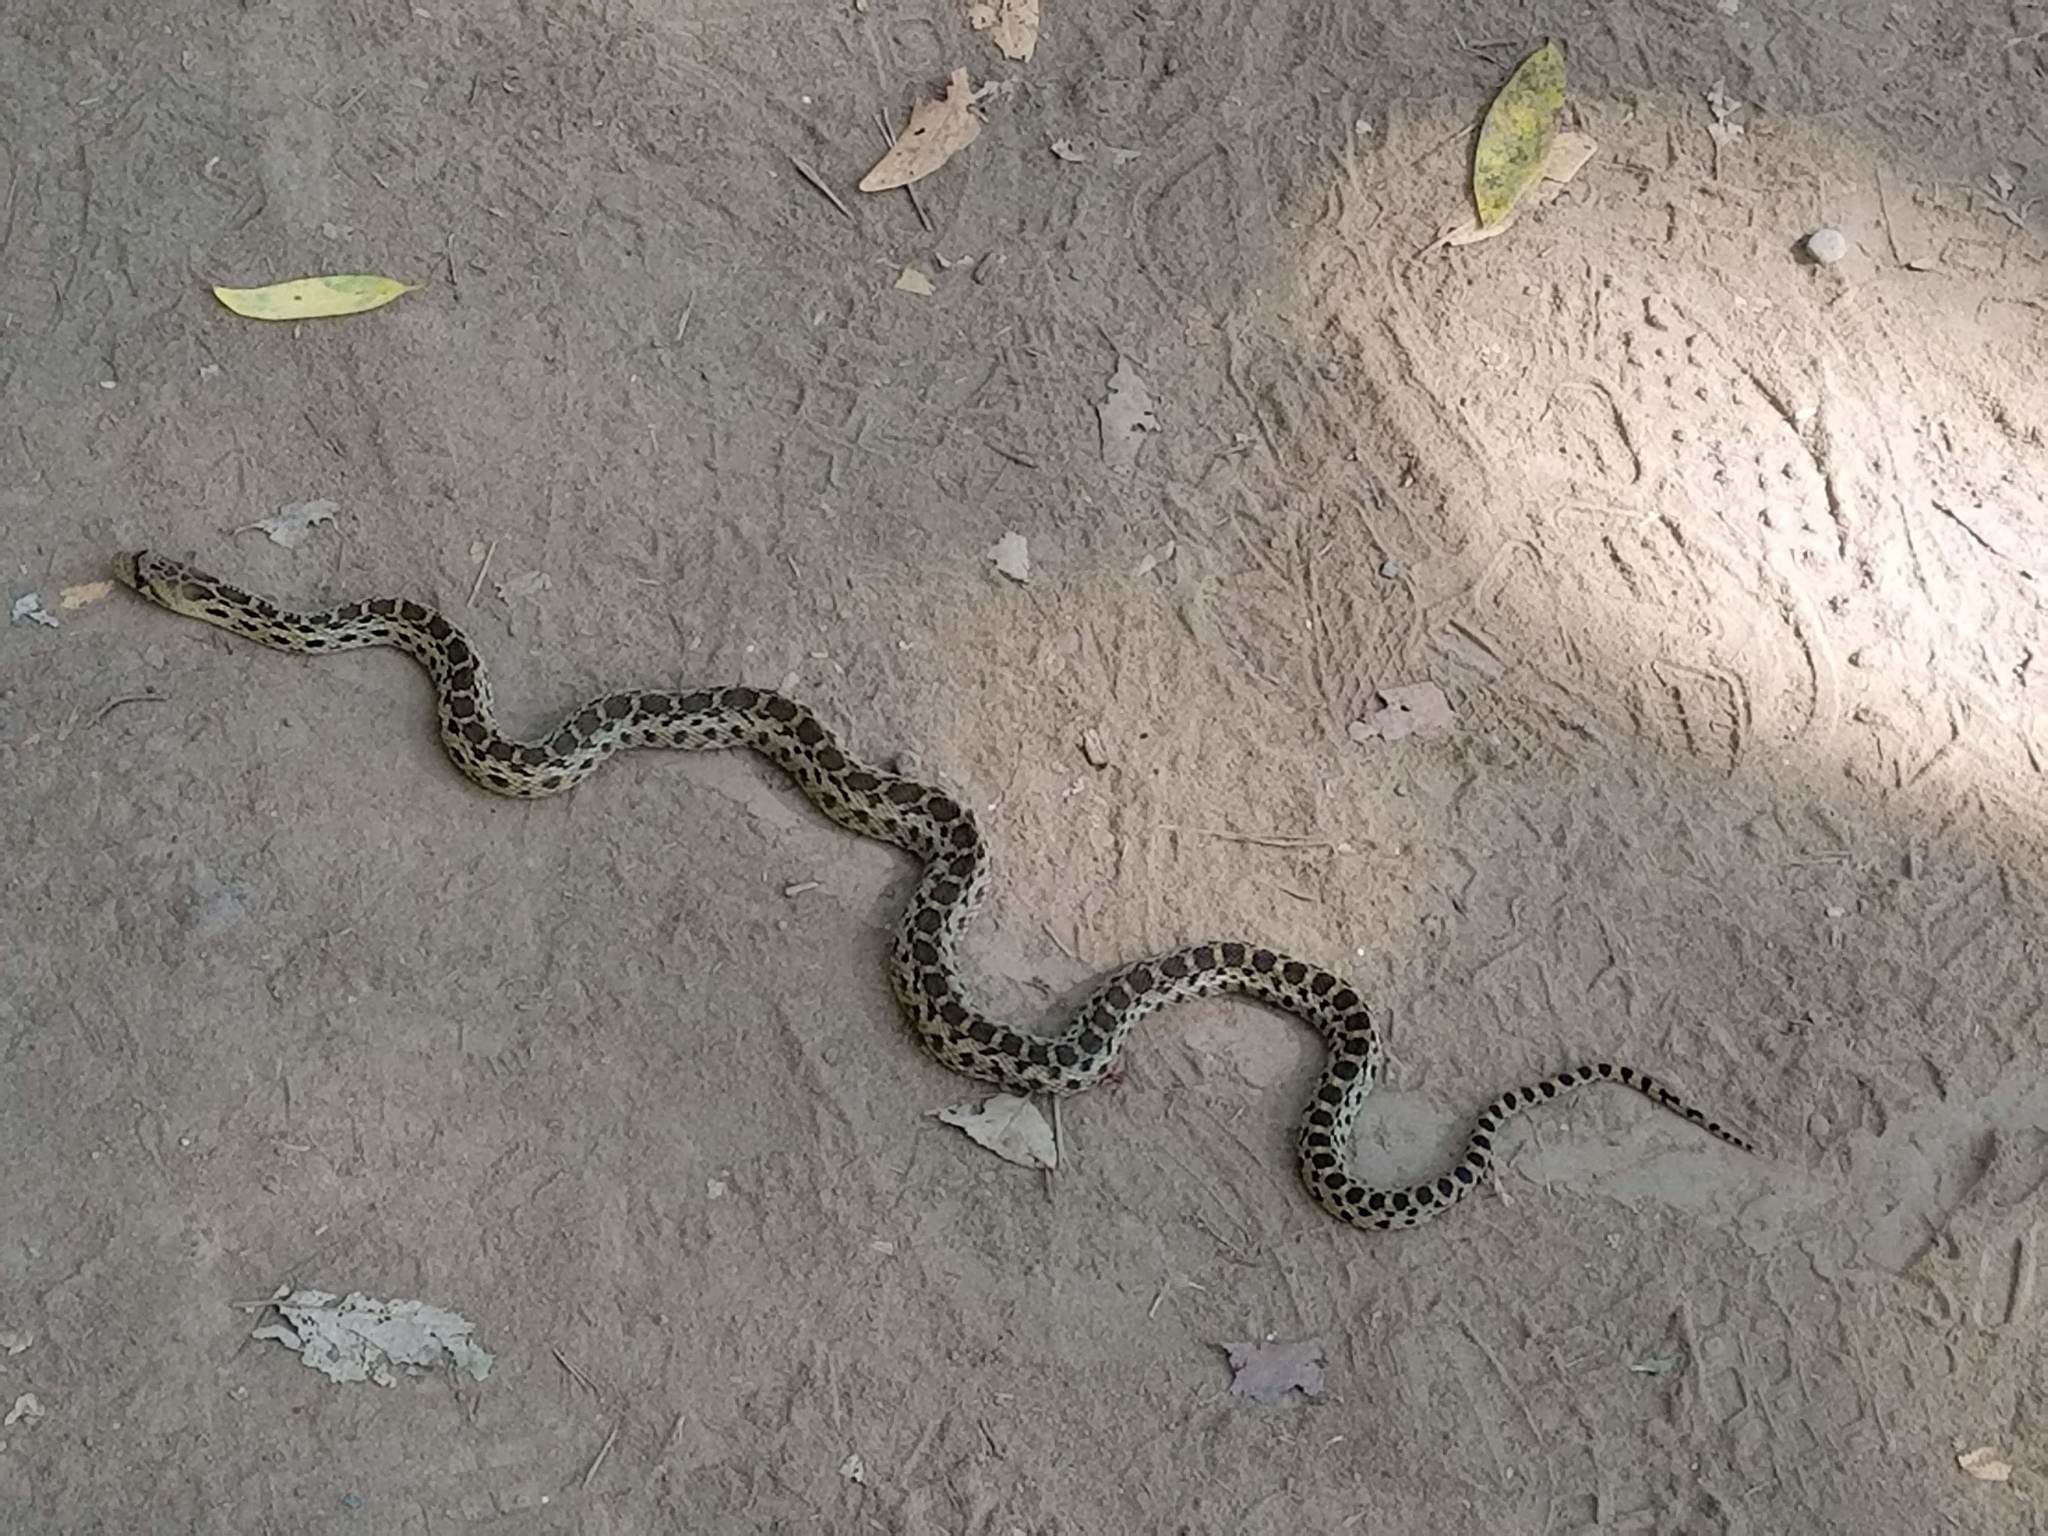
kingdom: Animalia
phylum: Chordata
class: Squamata
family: Colubridae
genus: Pituophis
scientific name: Pituophis catenifer
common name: Gopher snake
